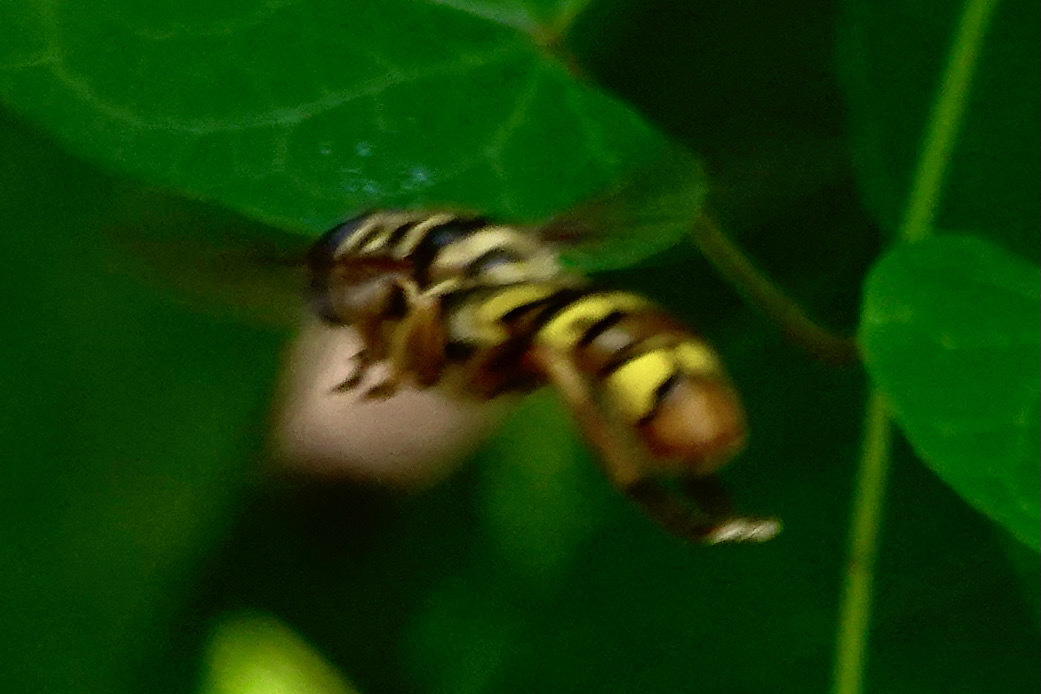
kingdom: Animalia
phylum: Arthropoda
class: Insecta
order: Diptera
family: Syrphidae
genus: Milesia
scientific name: Milesia virginiensis
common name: Virginia giant
